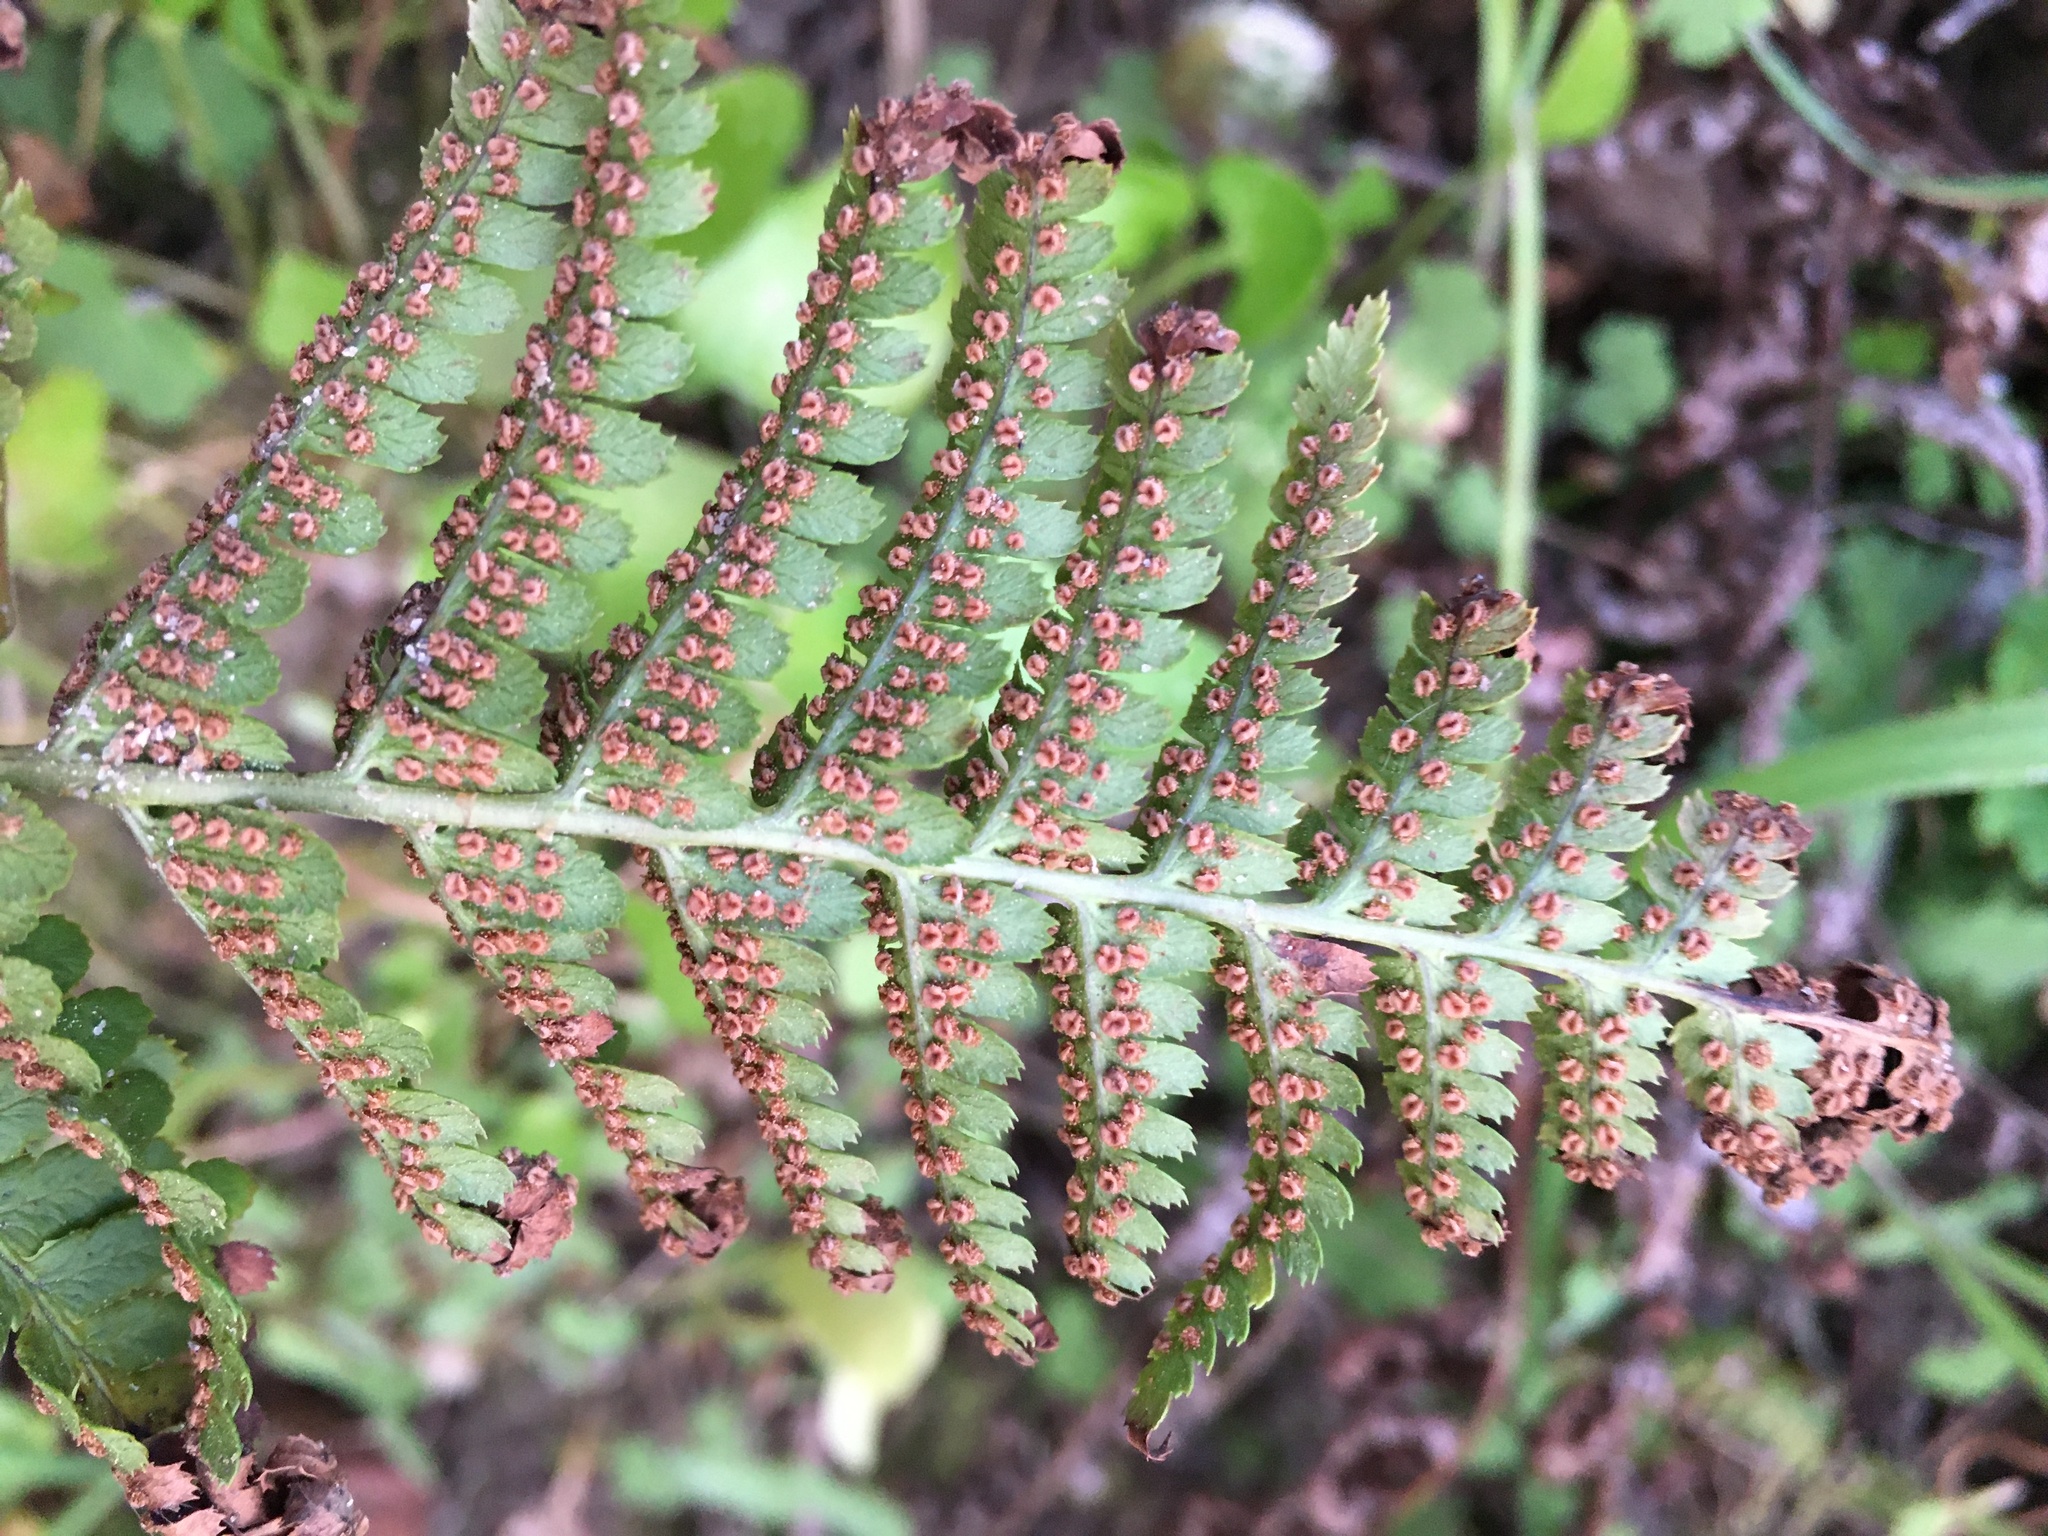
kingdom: Plantae
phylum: Tracheophyta
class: Polypodiopsida
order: Polypodiales
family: Dryopteridaceae
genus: Dryopteris
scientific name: Dryopteris arguta
